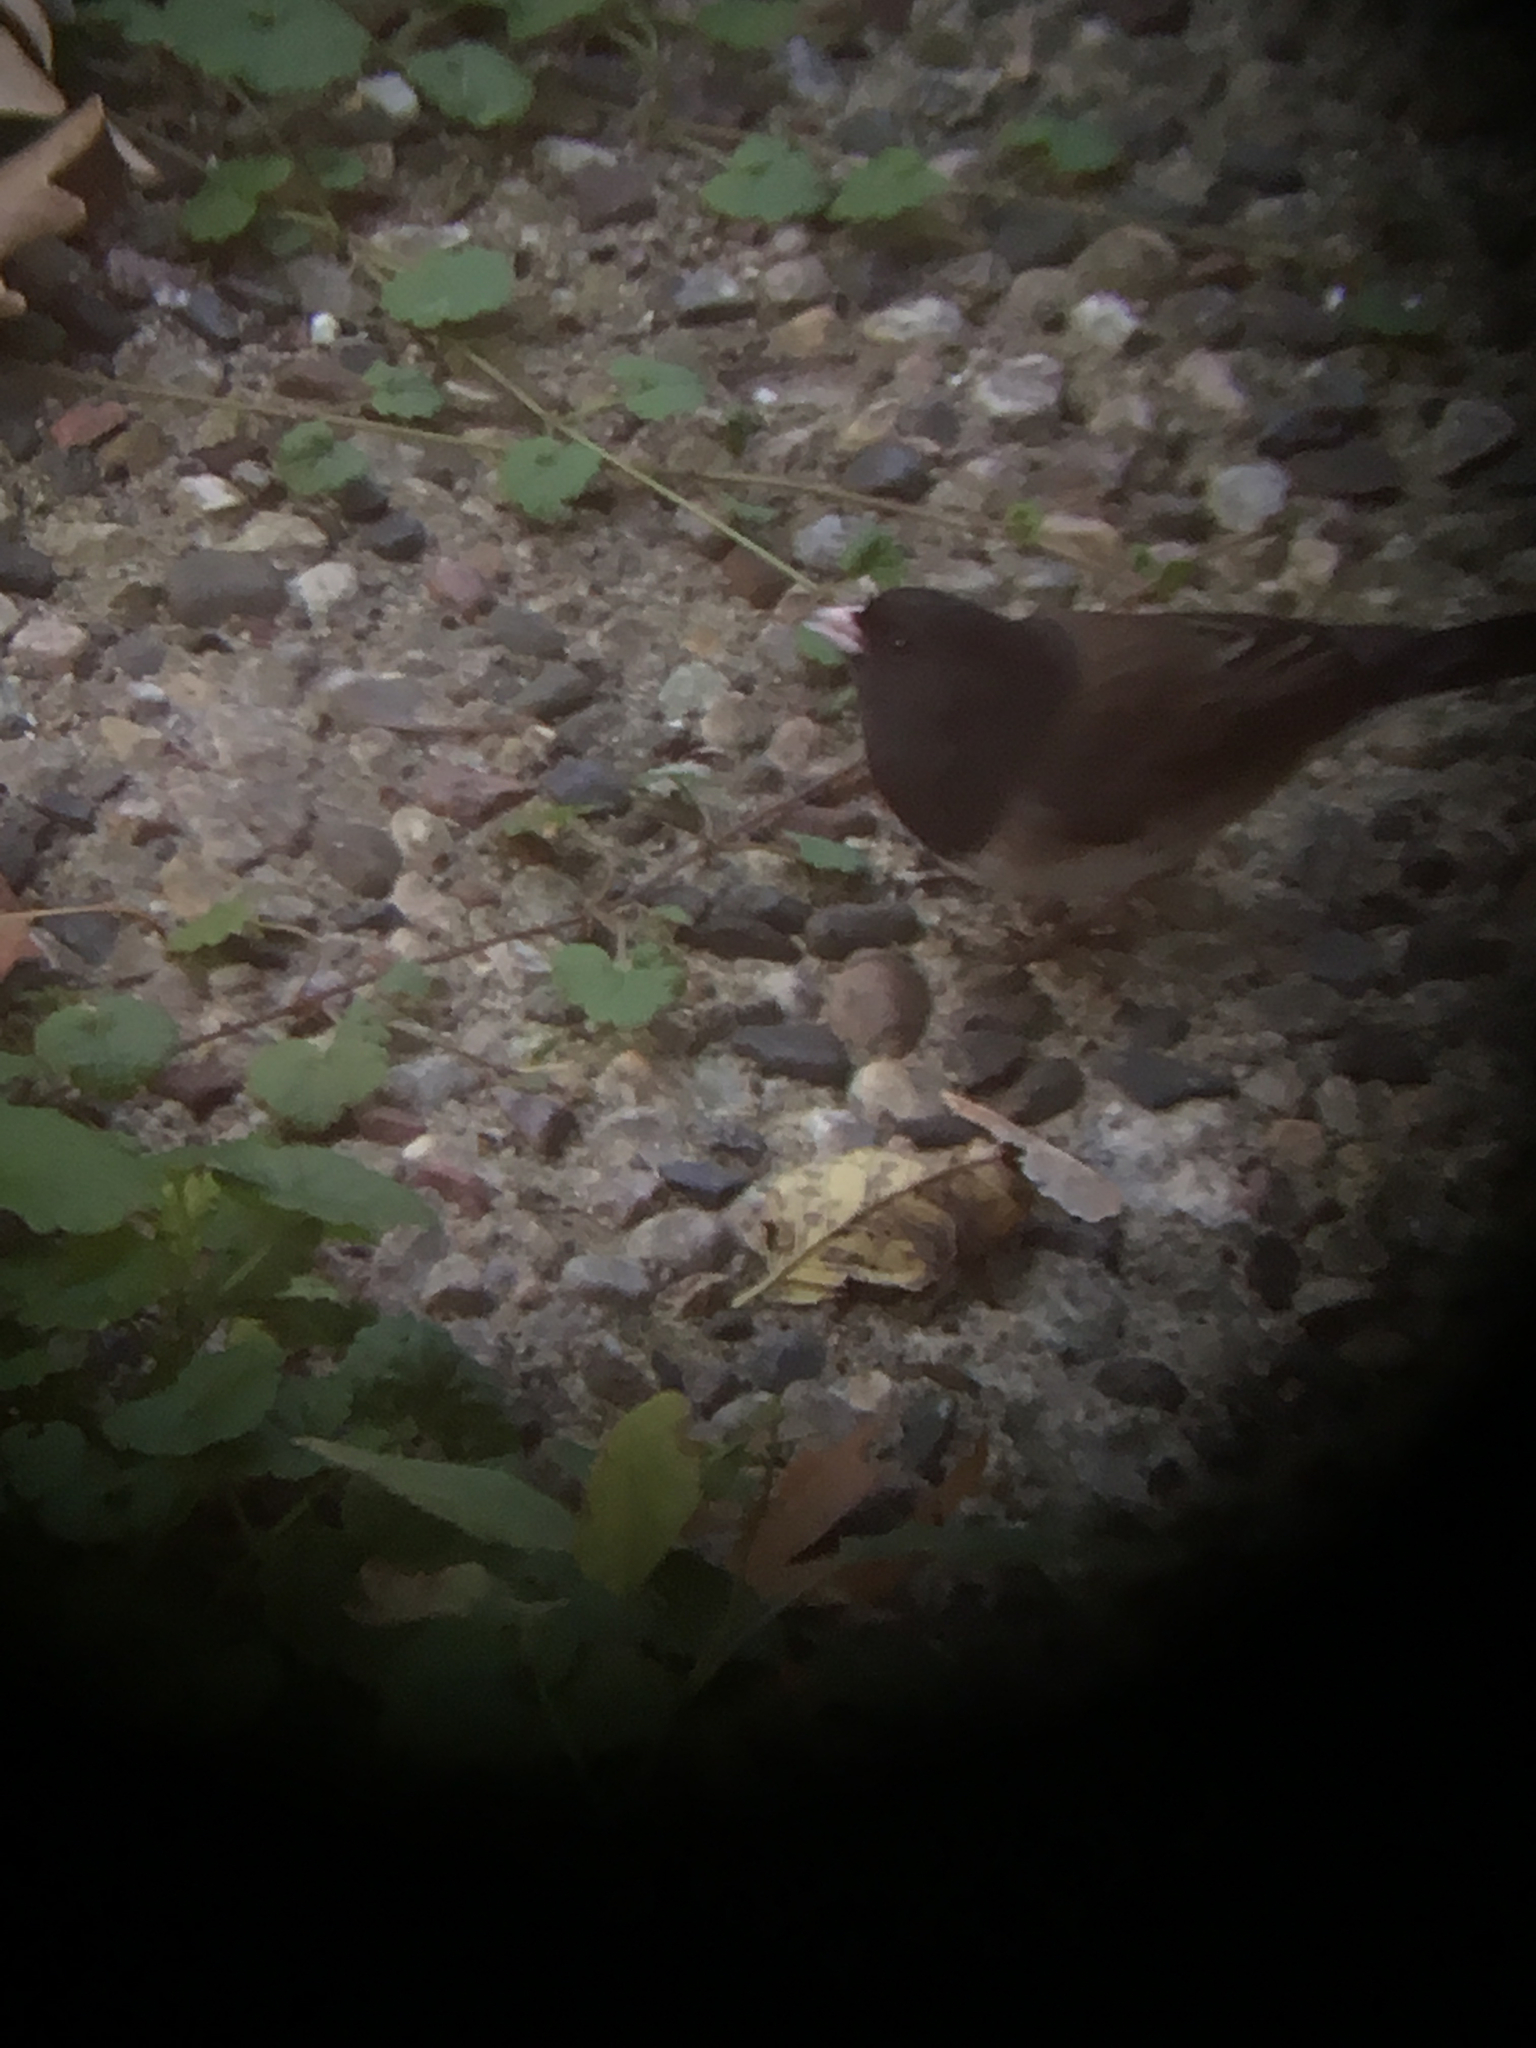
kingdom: Animalia
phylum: Chordata
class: Aves
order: Passeriformes
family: Passerellidae
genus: Junco
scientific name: Junco hyemalis
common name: Dark-eyed junco
